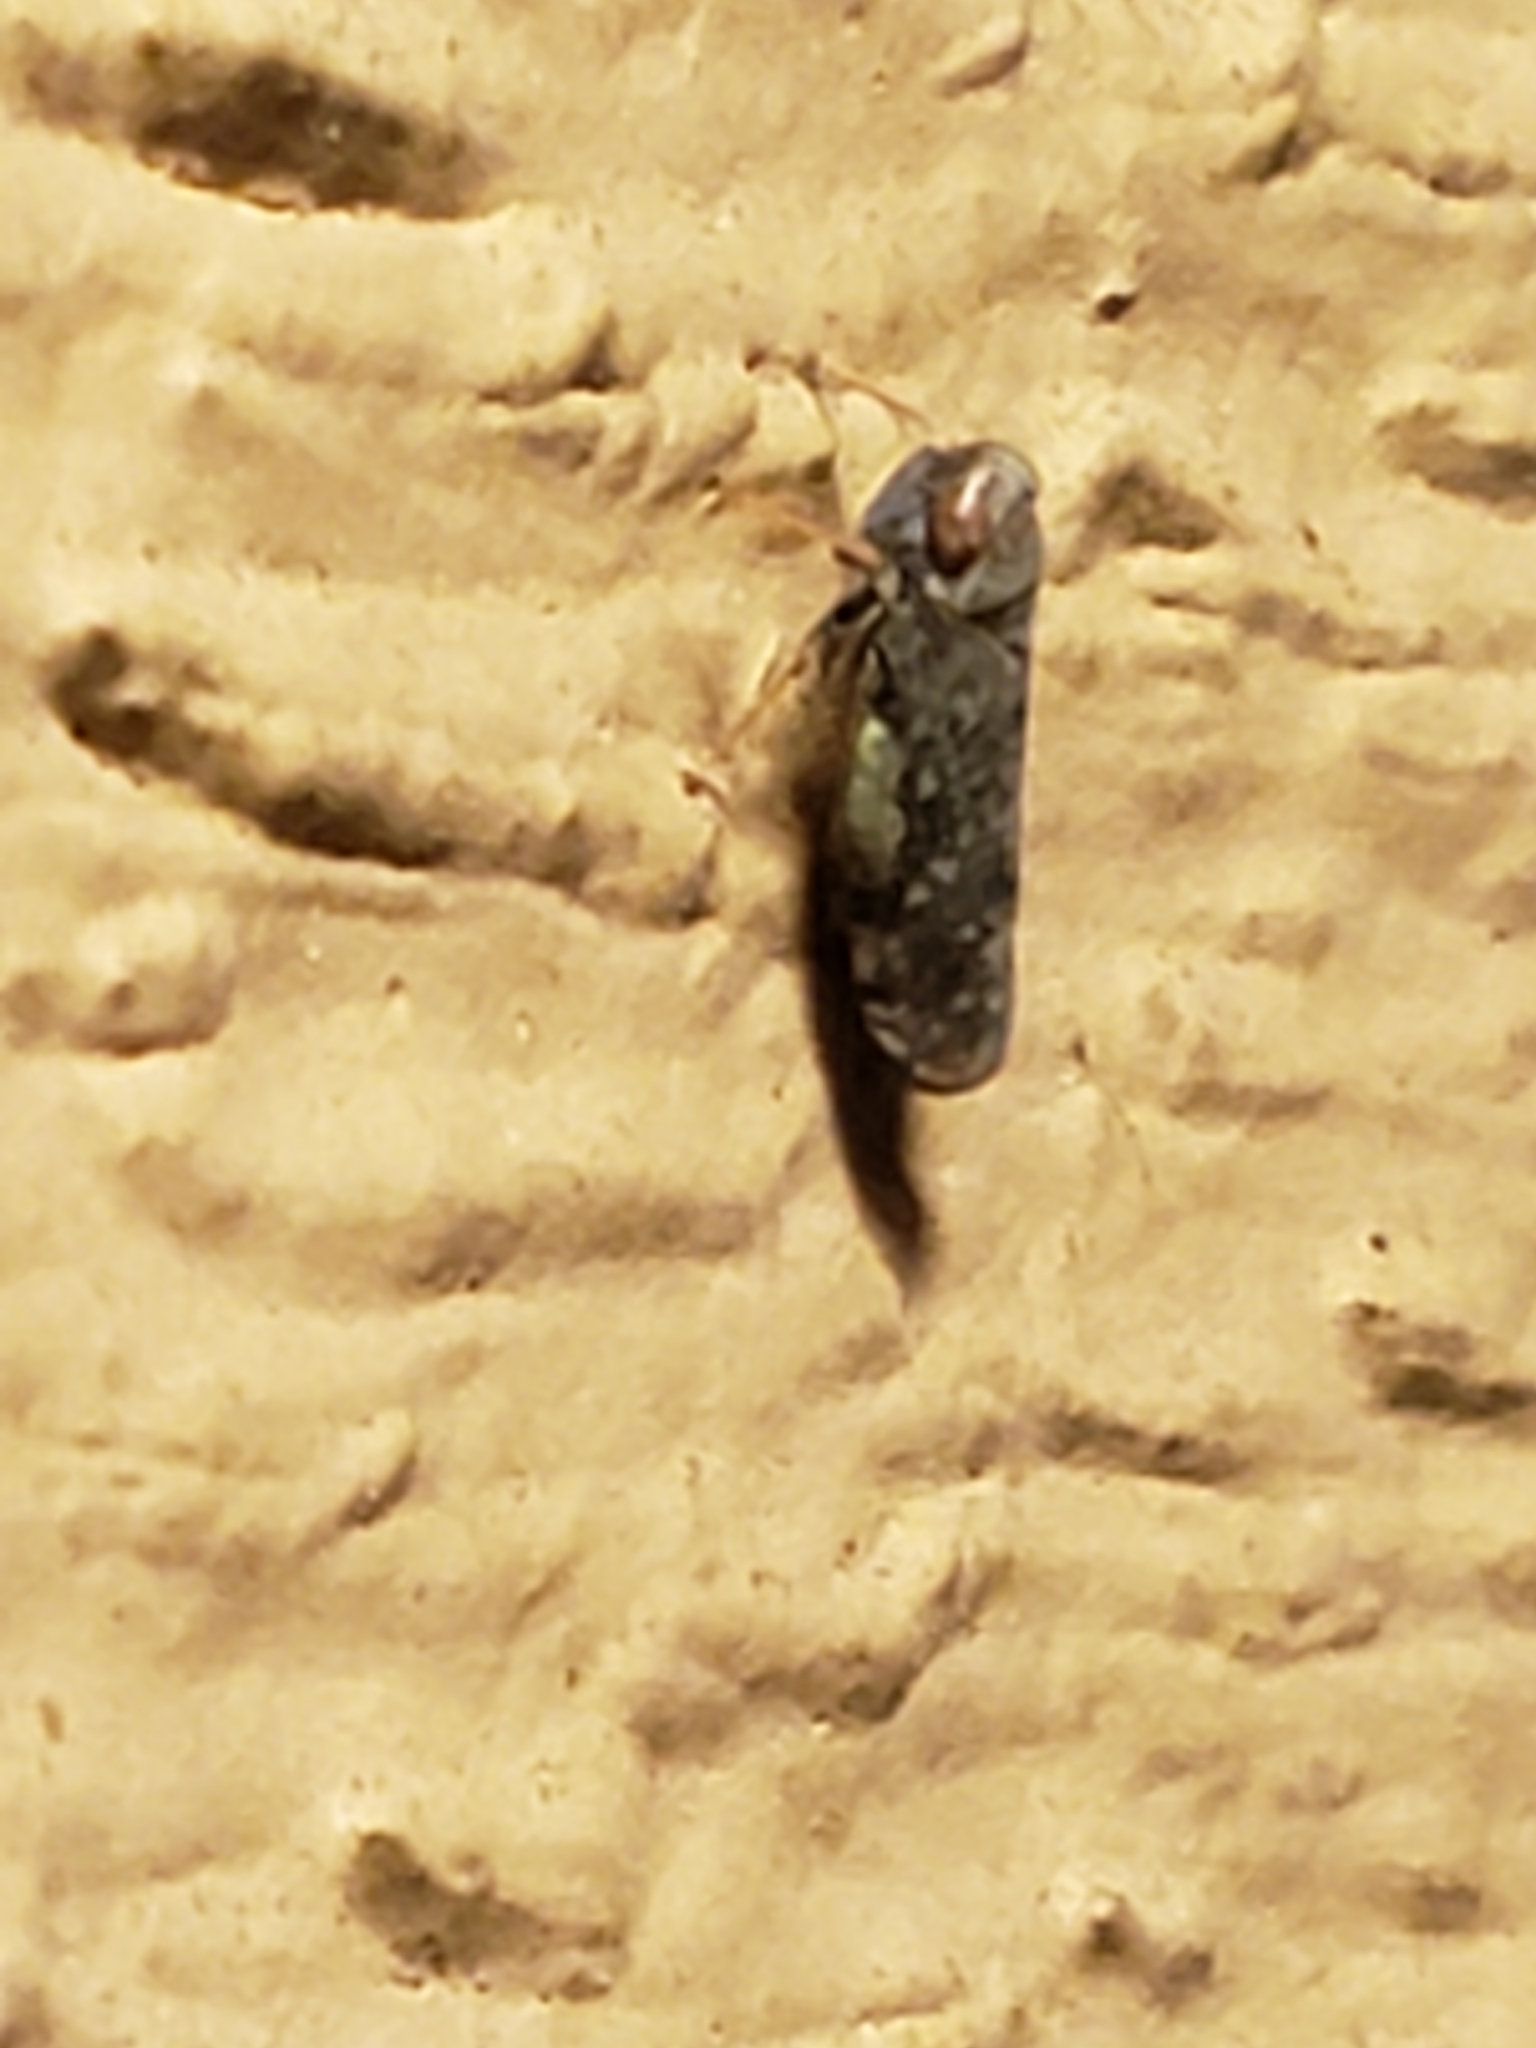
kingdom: Animalia
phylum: Arthropoda
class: Insecta
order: Hemiptera
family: Cicadellidae
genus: Orientus
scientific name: Orientus ishidae
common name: Japanese leafhopper
